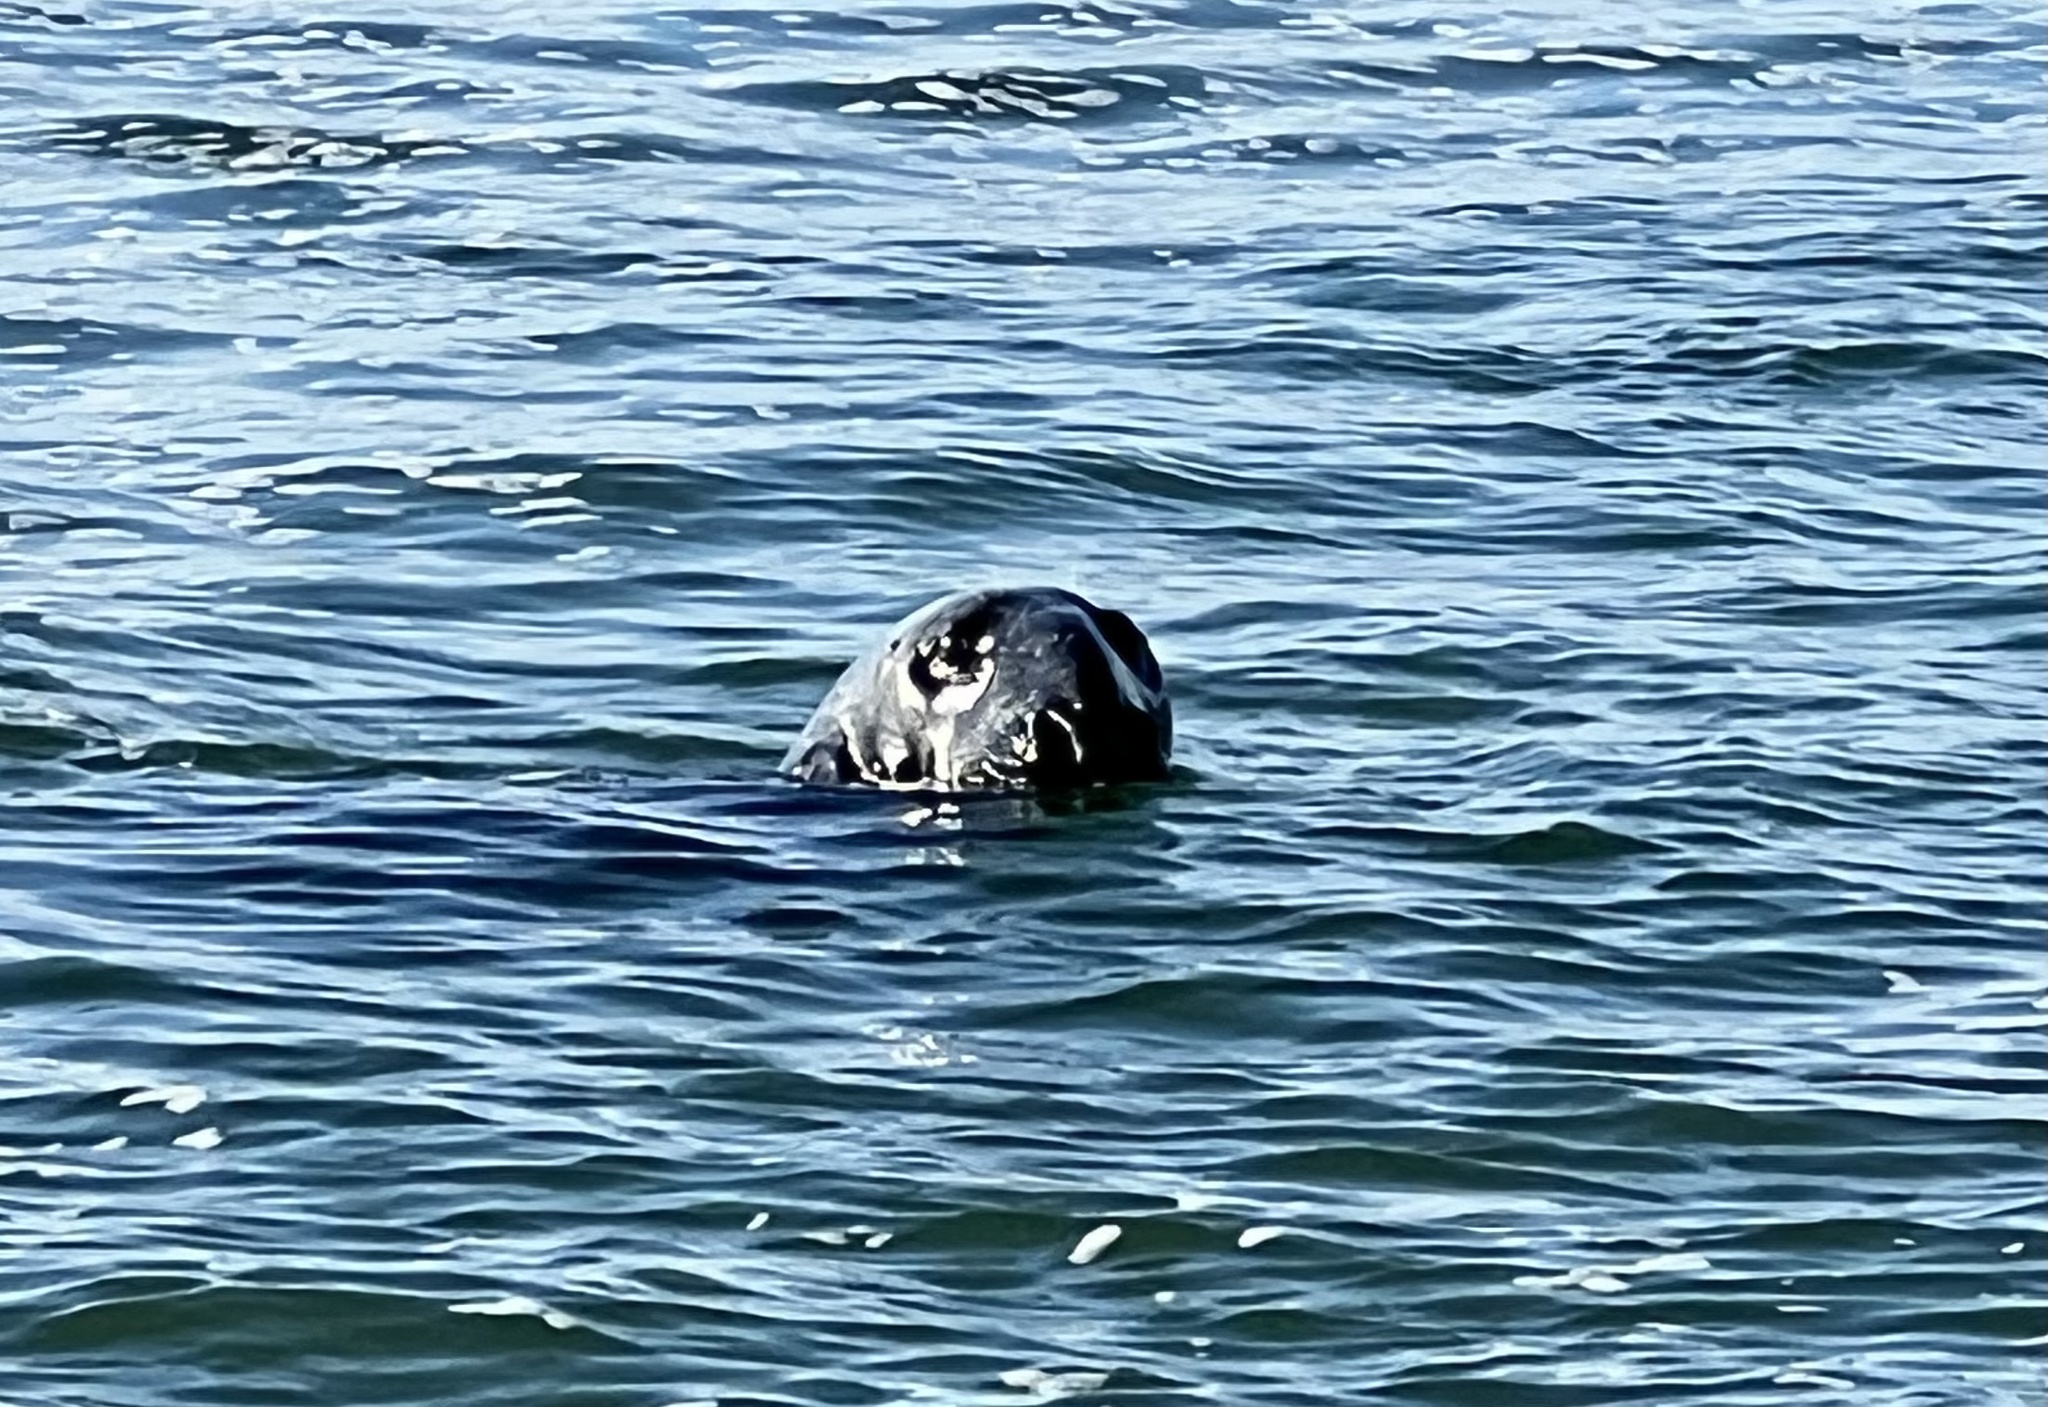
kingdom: Animalia
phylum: Chordata
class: Mammalia
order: Carnivora
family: Phocidae
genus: Halichoerus
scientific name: Halichoerus grypus
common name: Grey seal
